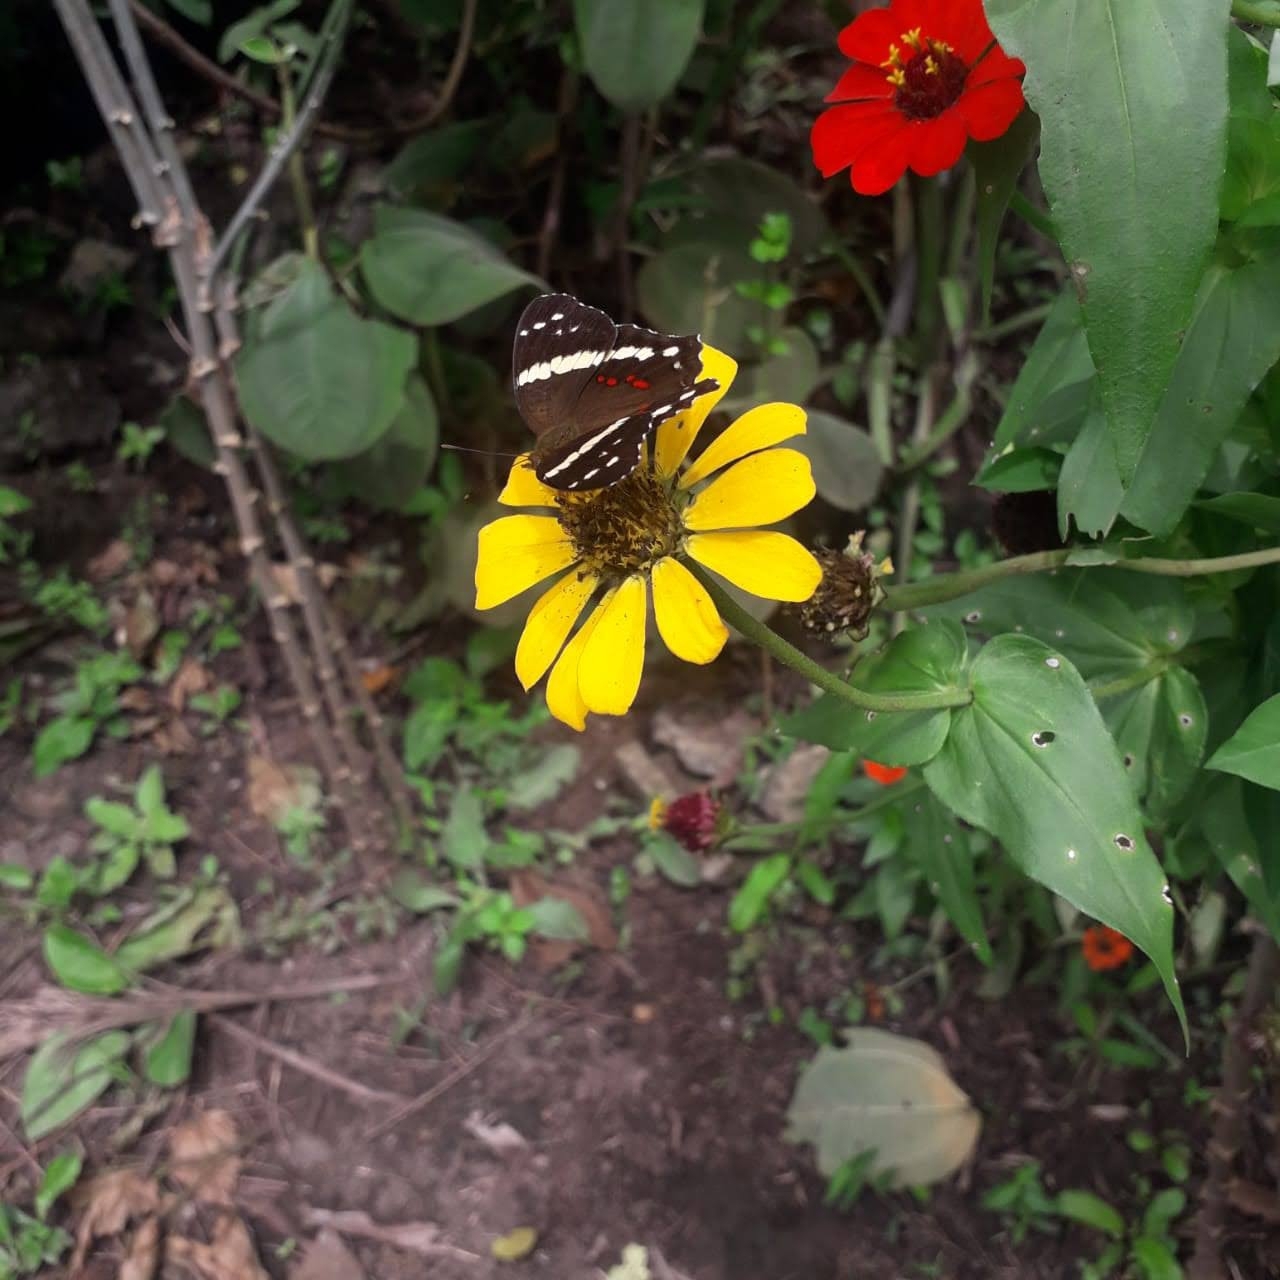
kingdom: Animalia
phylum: Arthropoda
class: Insecta
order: Lepidoptera
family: Nymphalidae
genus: Anartia
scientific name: Anartia fatima
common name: Banded peacock
